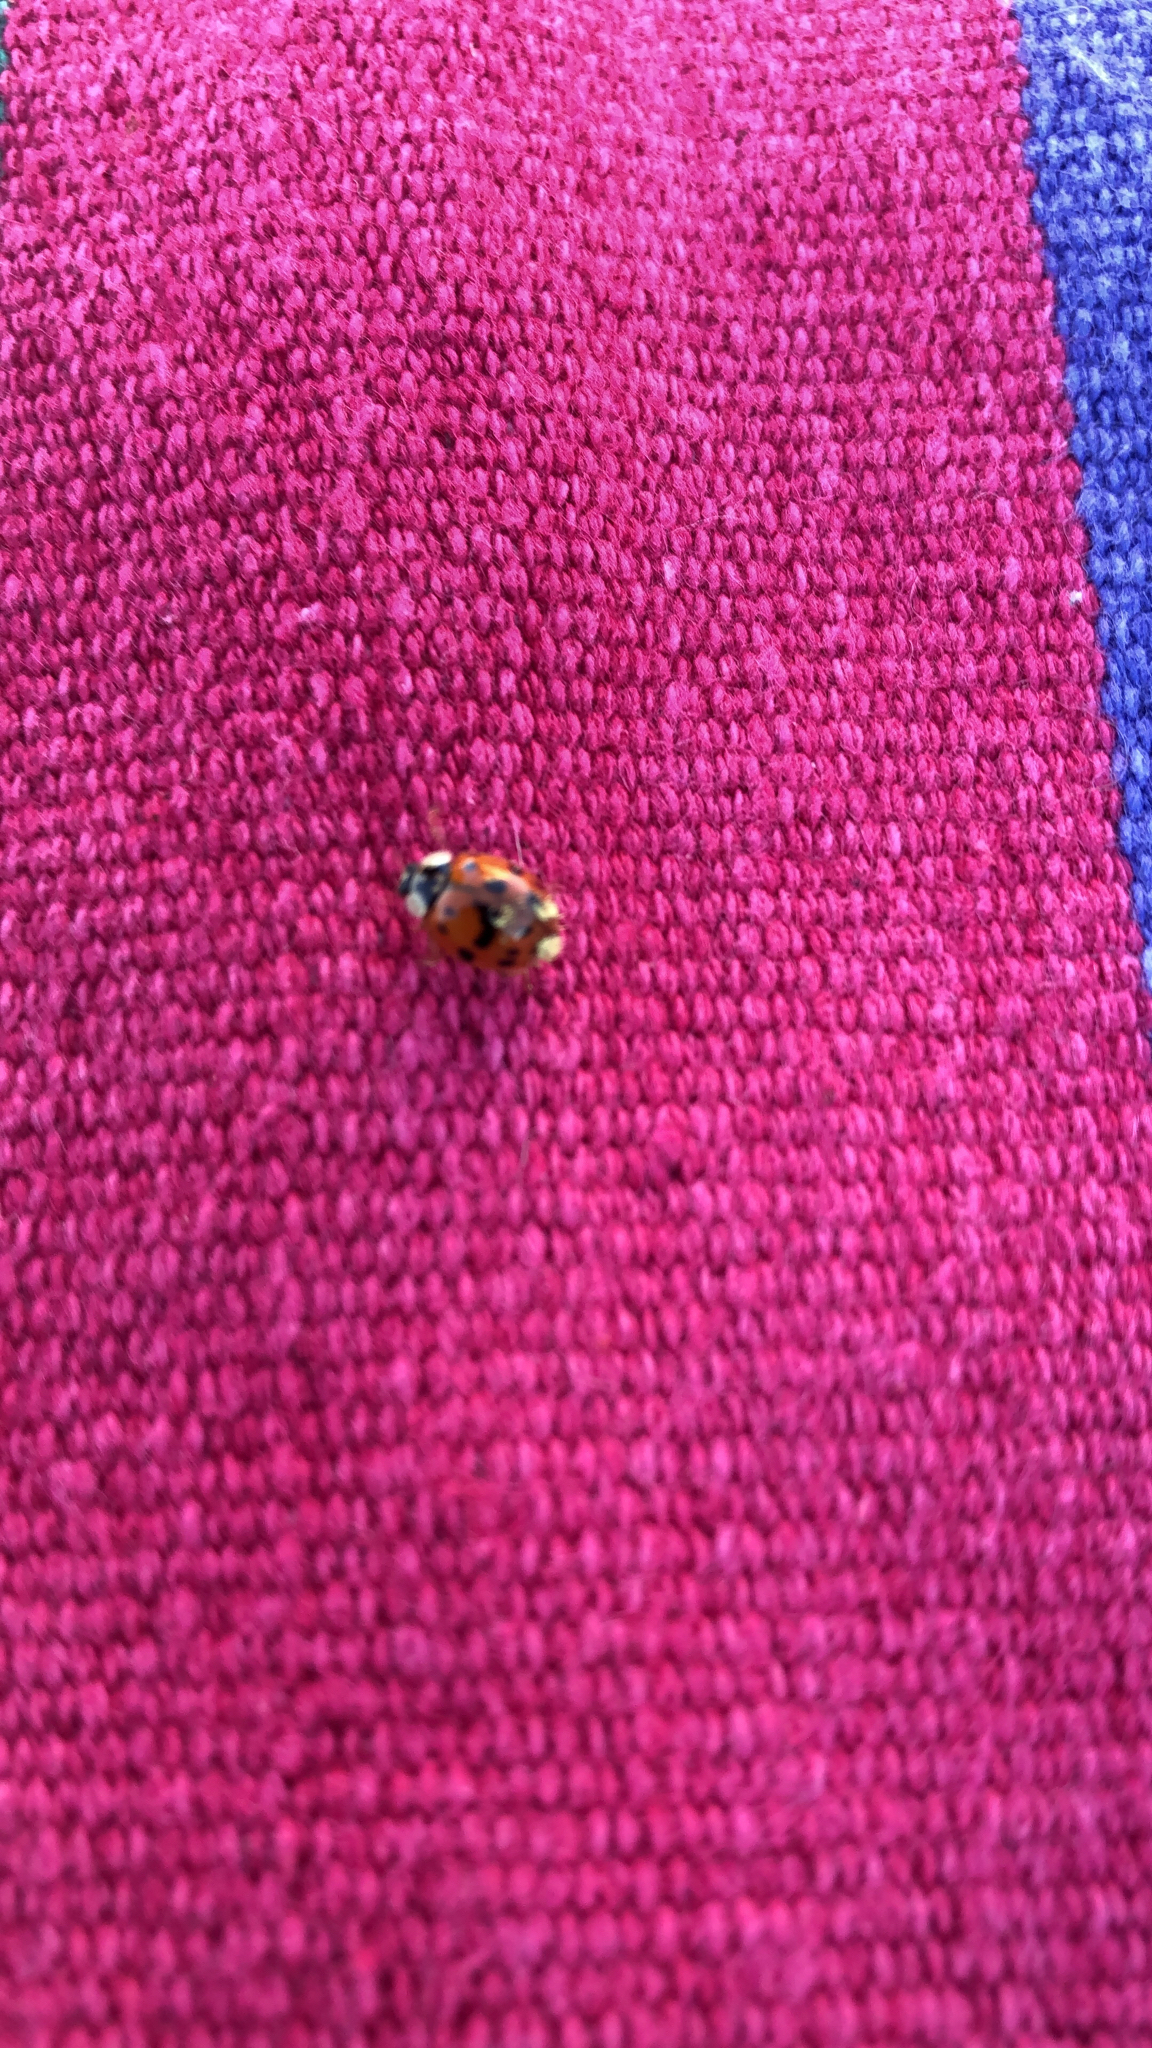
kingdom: Animalia
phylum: Arthropoda
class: Insecta
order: Coleoptera
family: Coccinellidae
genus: Harmonia
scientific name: Harmonia axyridis
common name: Harlequin ladybird
